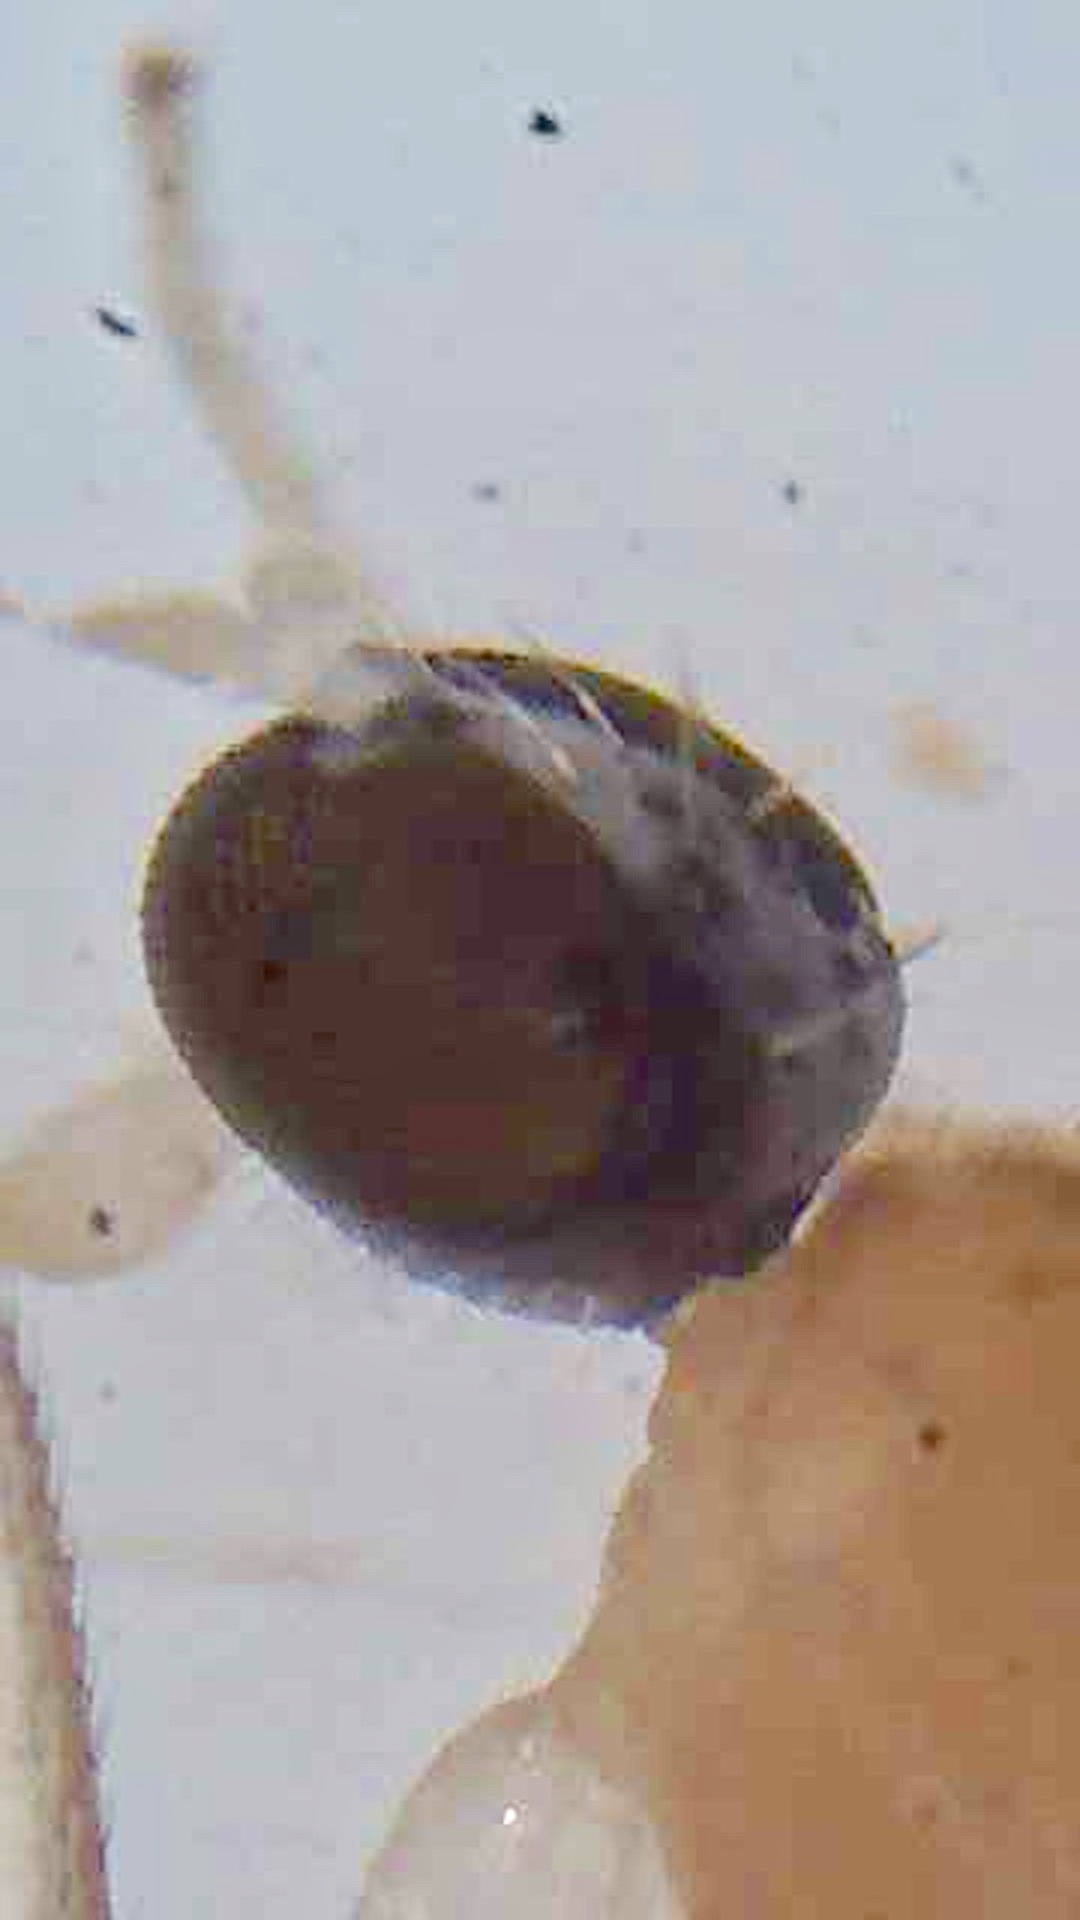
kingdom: Animalia
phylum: Arthropoda
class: Insecta
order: Diptera
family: Empididae
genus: Phyllodromia
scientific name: Phyllodromia proiecta
